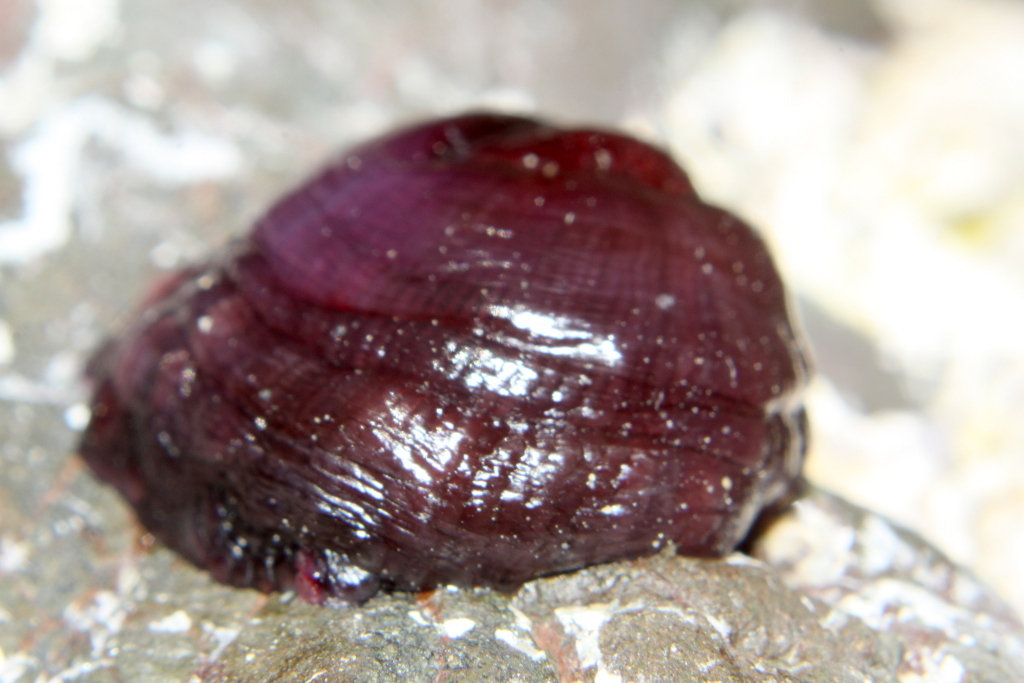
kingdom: Animalia
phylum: Cnidaria
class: Anthozoa
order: Actiniaria
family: Actiniidae
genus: Actinia
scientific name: Actinia tenebrosa
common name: Waratah anemone
